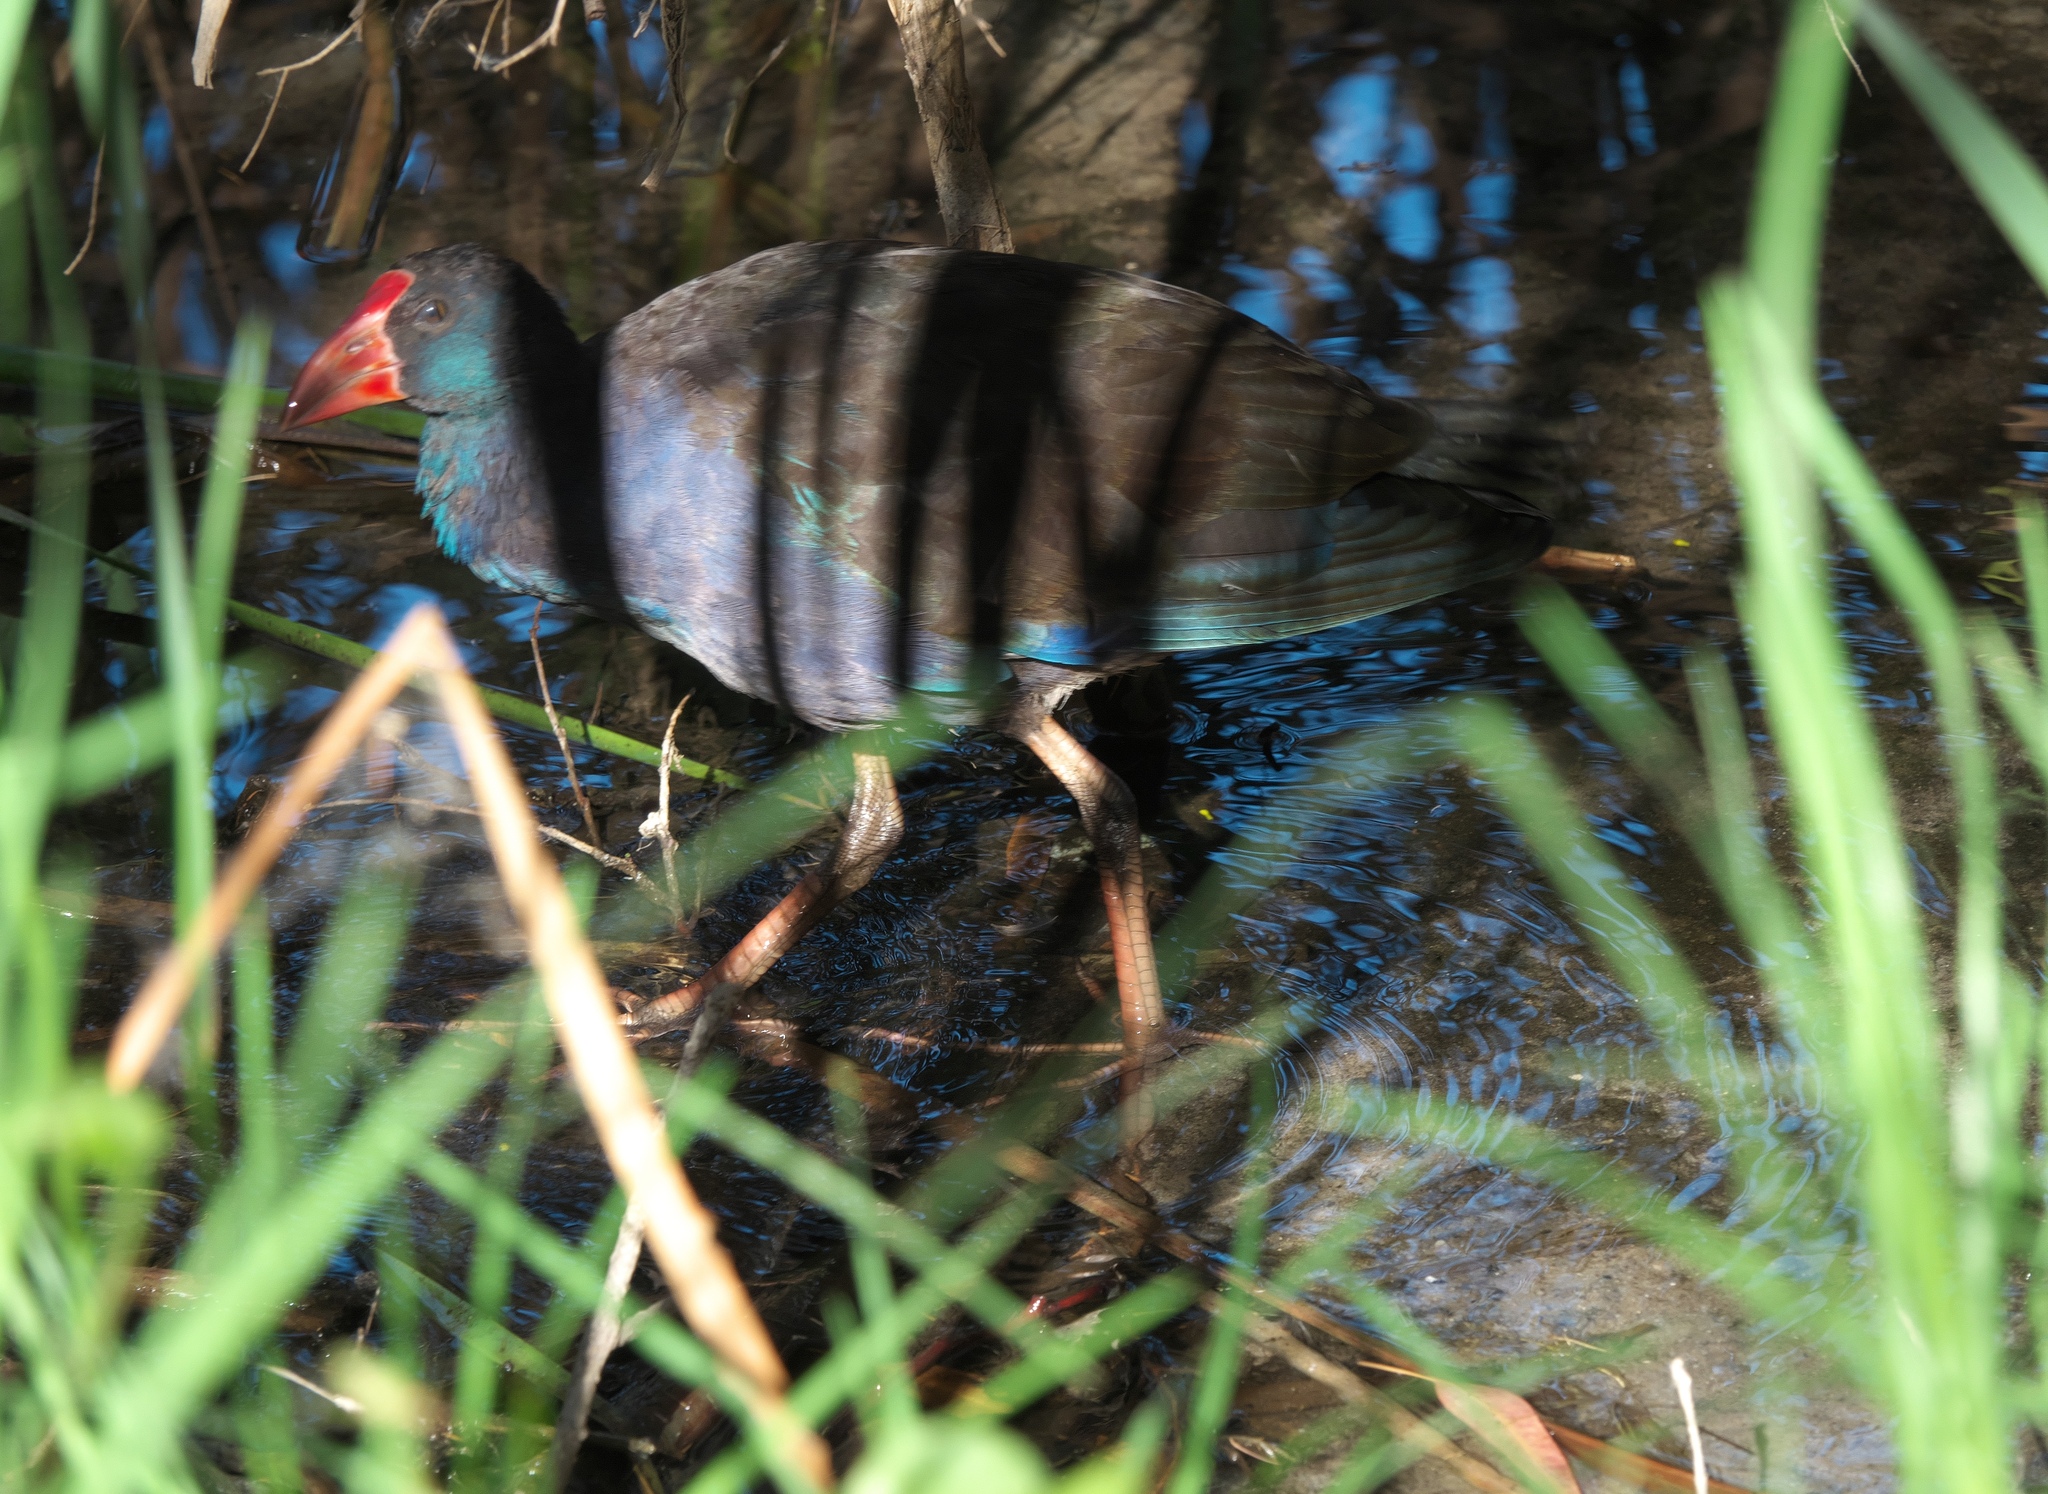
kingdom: Animalia
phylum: Chordata
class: Aves
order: Gruiformes
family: Rallidae
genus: Porphyrio
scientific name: Porphyrio melanotus
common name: Australasian swamphen
